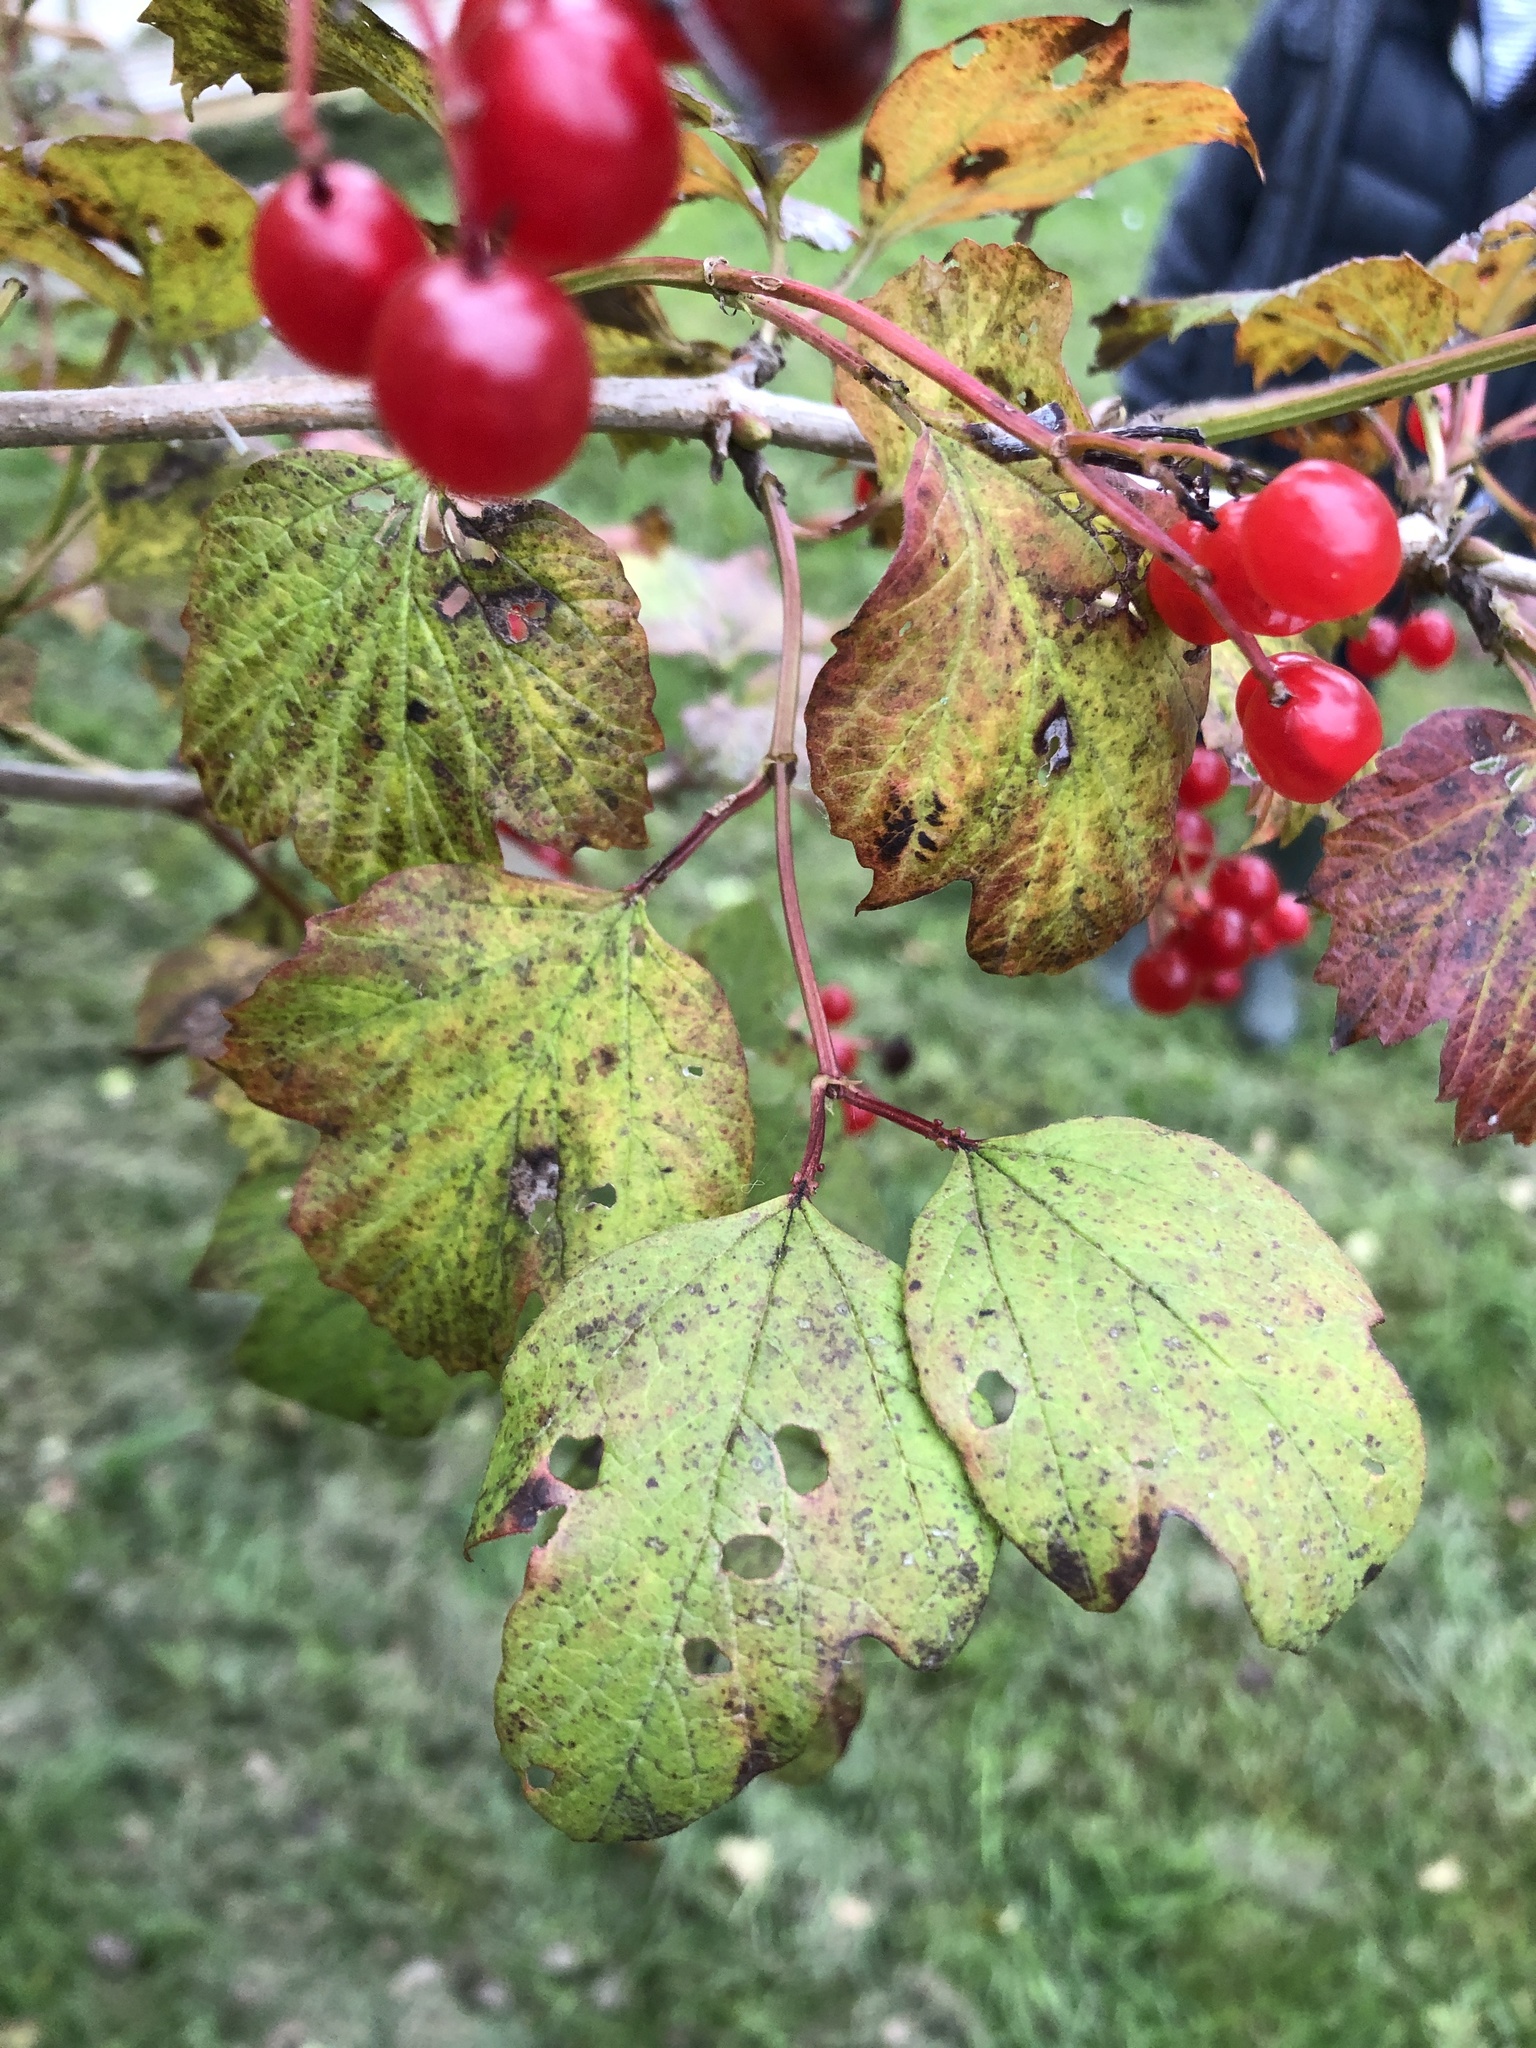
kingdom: Plantae
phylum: Tracheophyta
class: Magnoliopsida
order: Dipsacales
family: Viburnaceae
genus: Viburnum
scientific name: Viburnum opulus
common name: Guelder-rose
